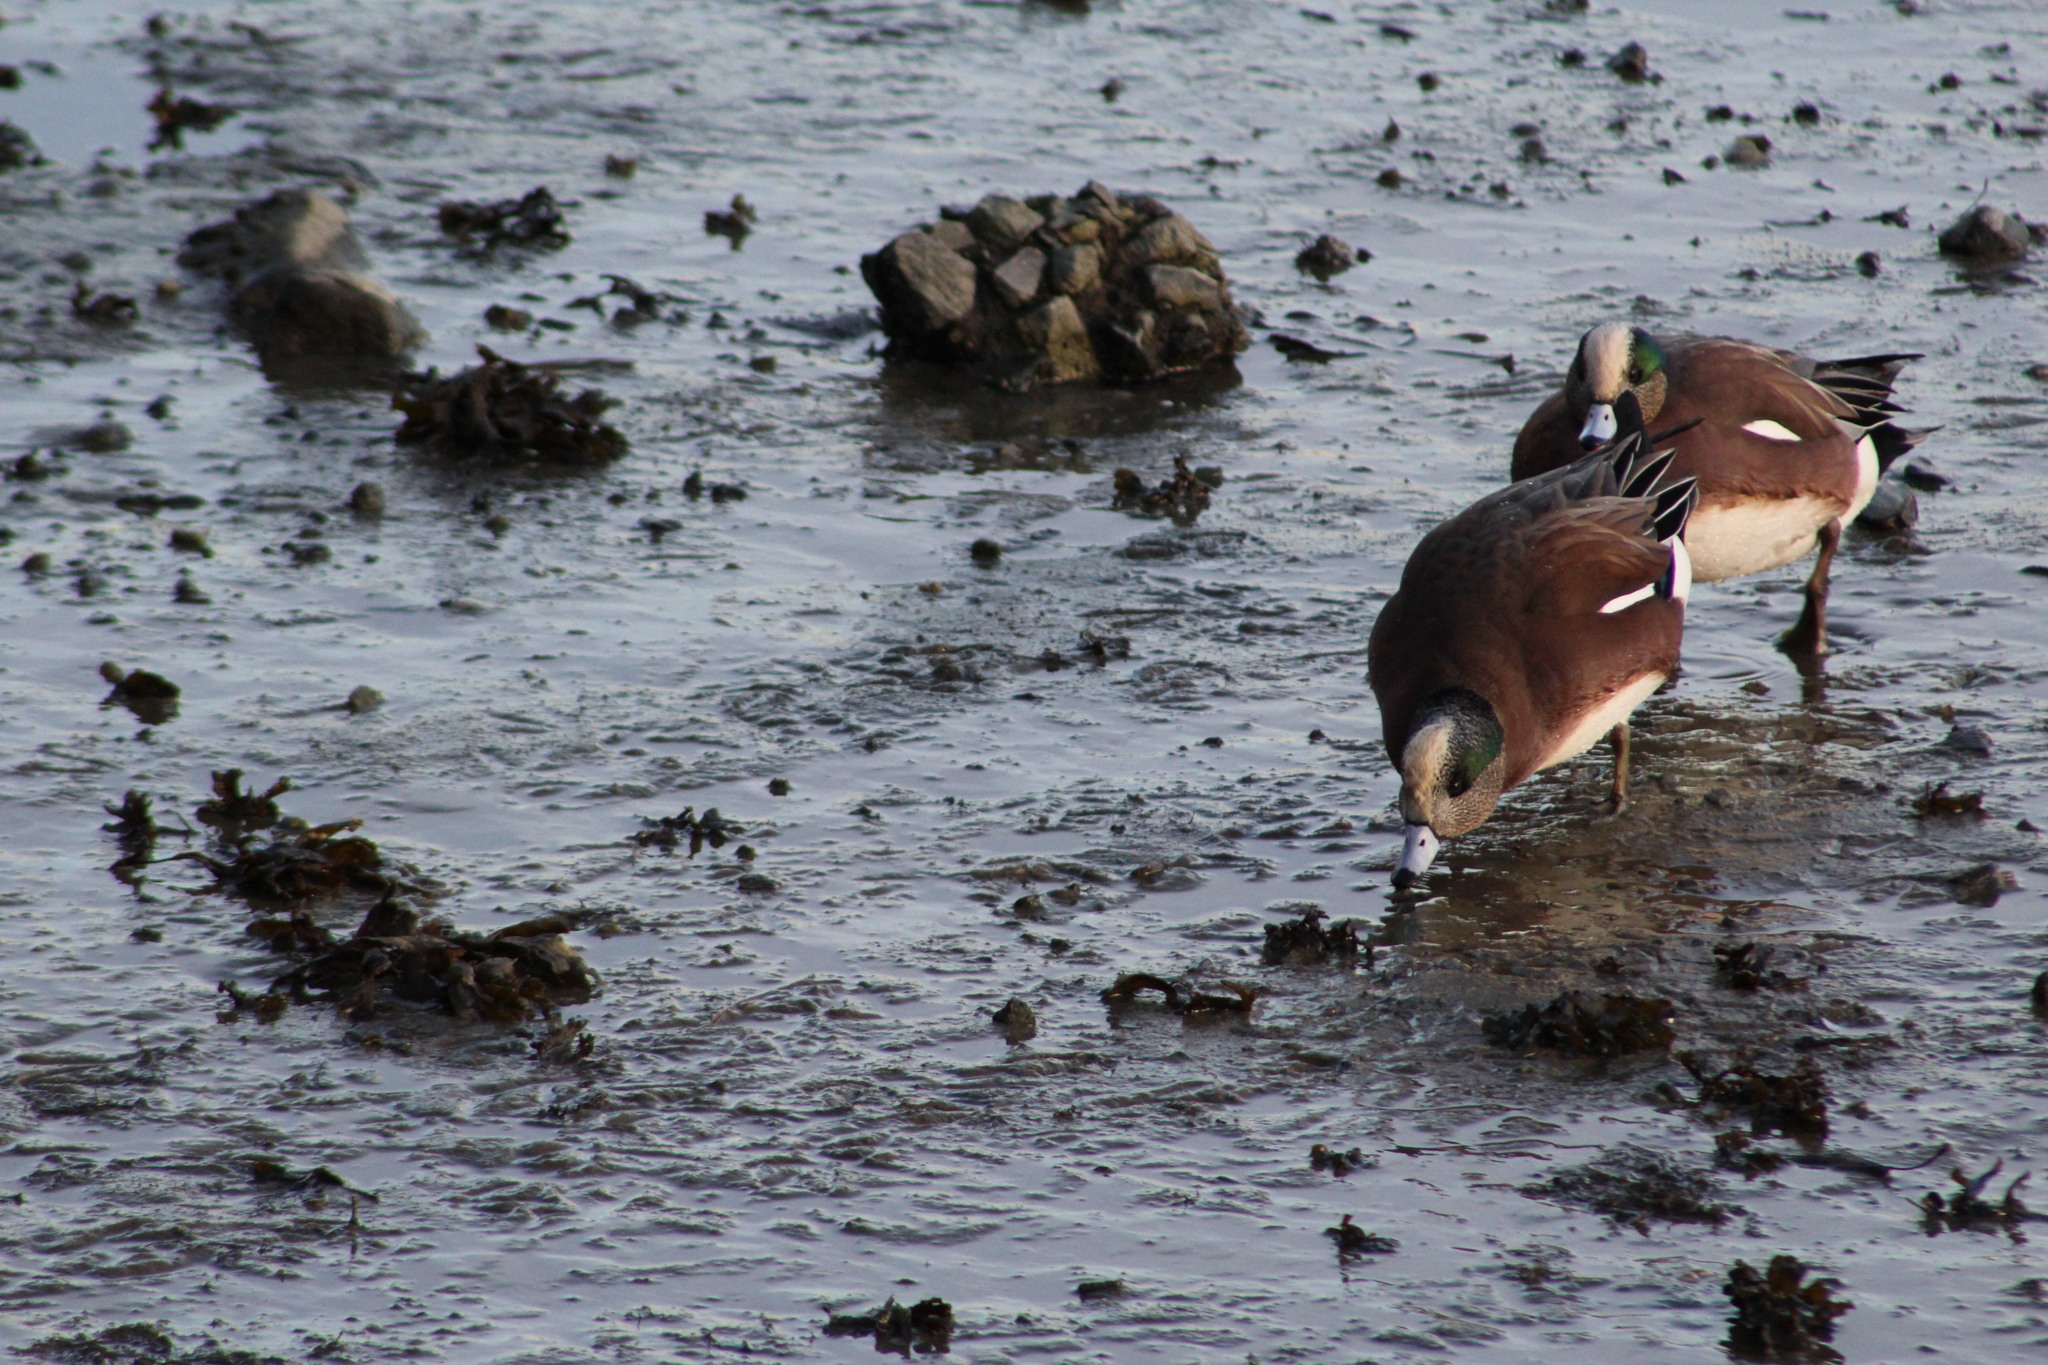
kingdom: Animalia
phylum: Chordata
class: Aves
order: Anseriformes
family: Anatidae
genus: Mareca
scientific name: Mareca americana
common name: American wigeon
